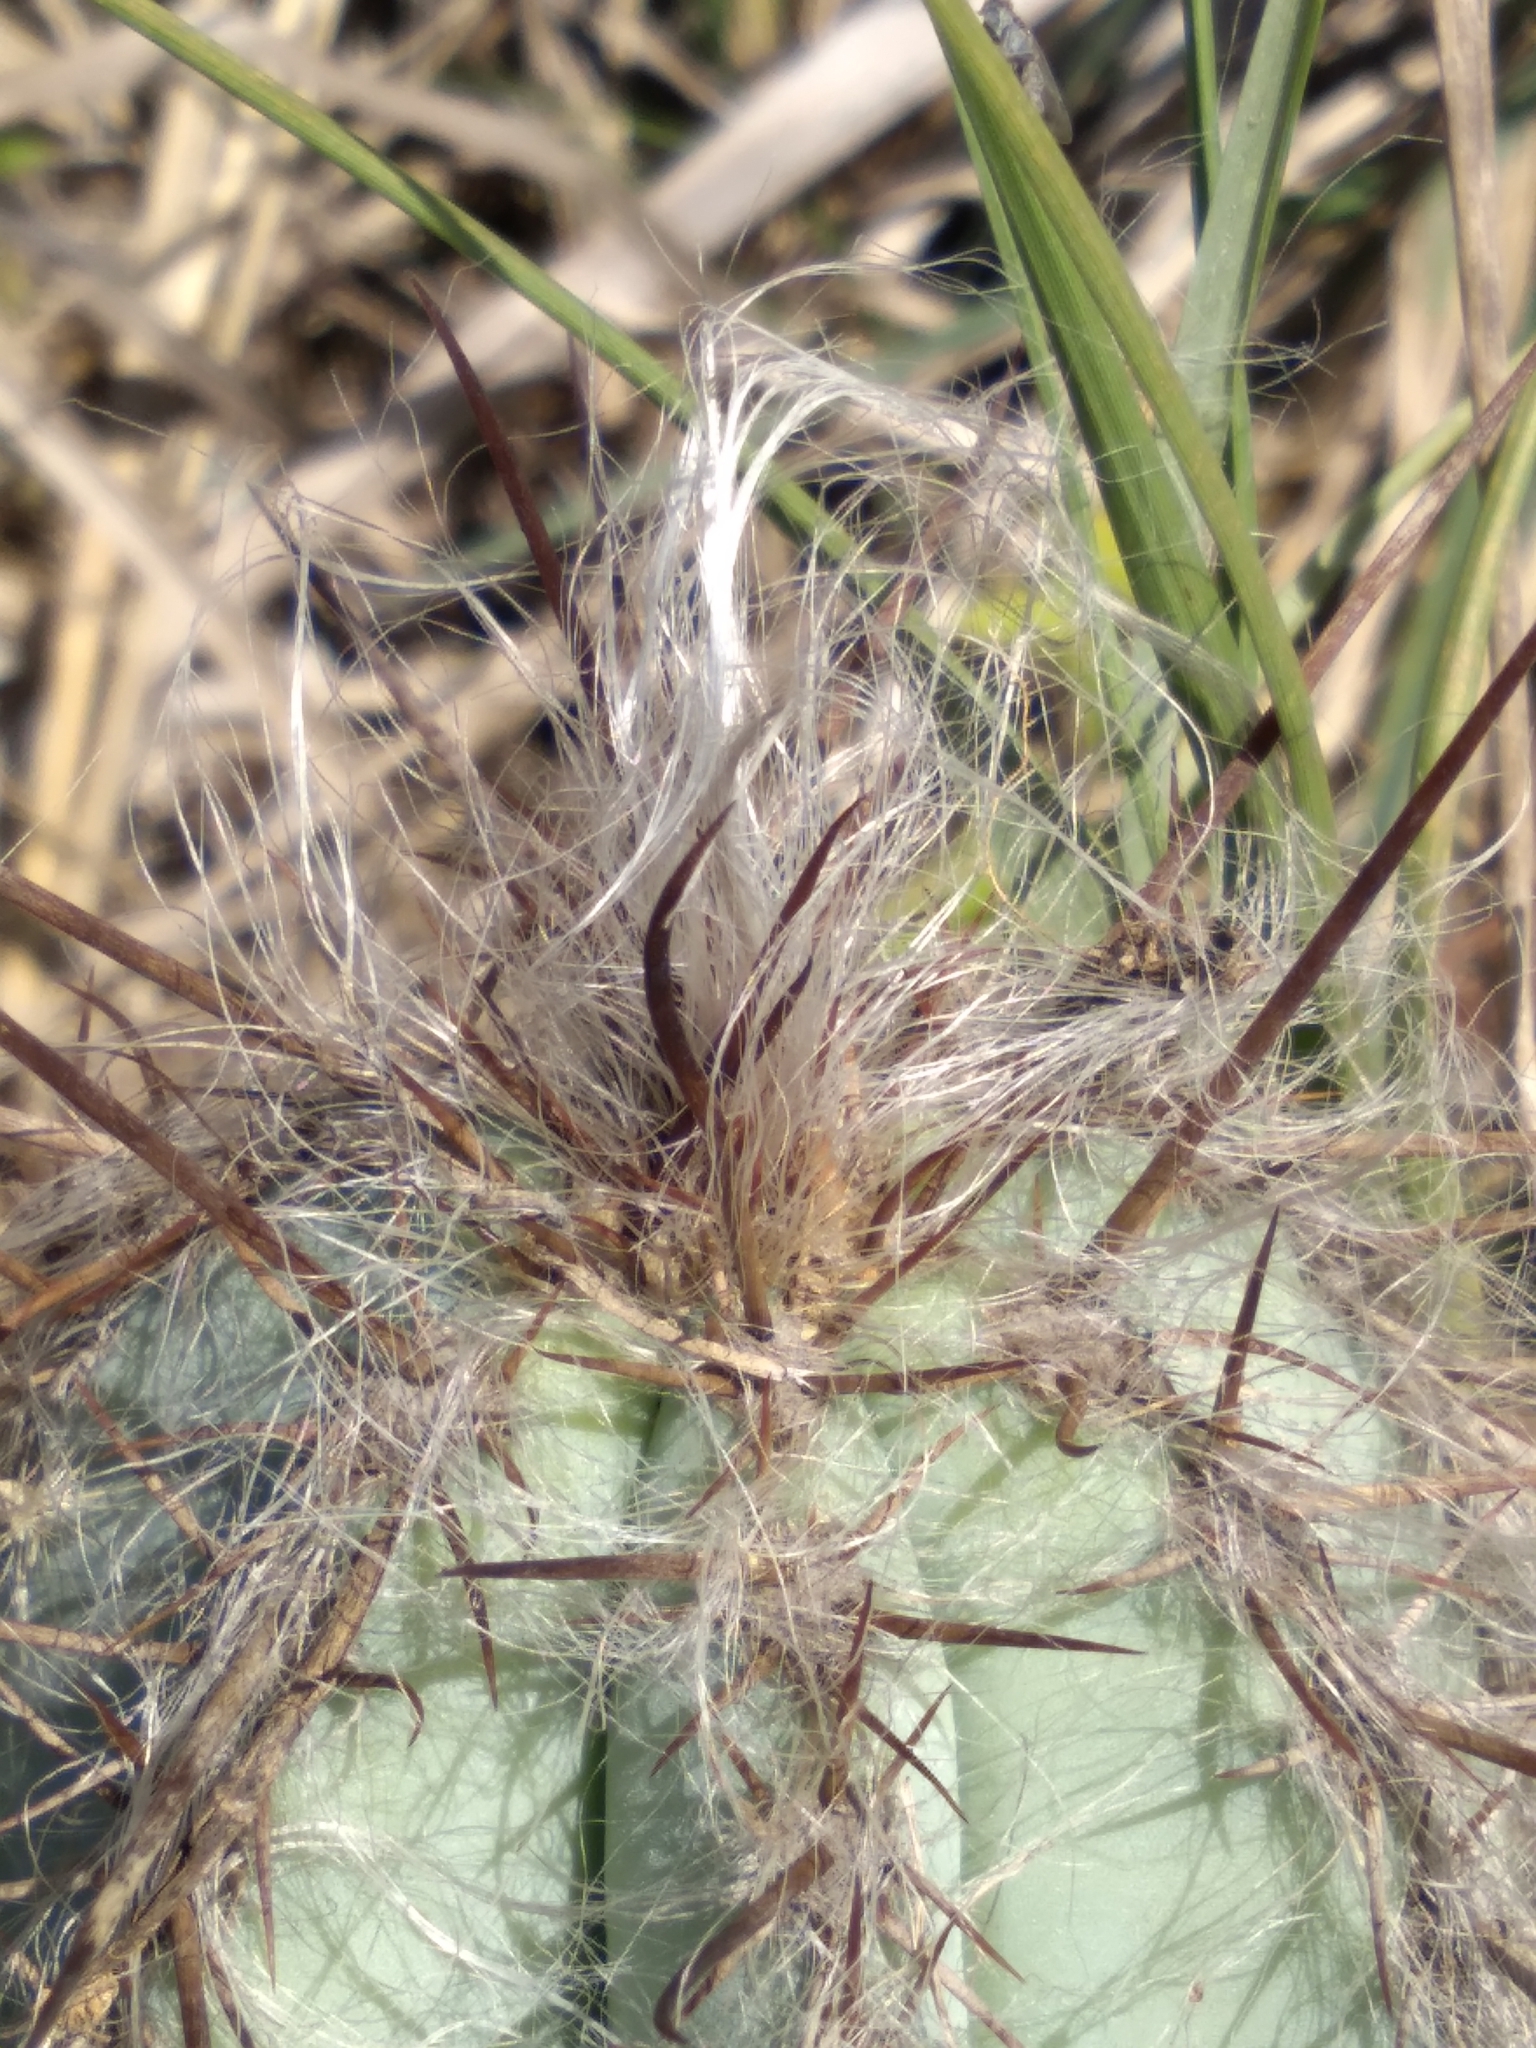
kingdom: Plantae
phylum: Tracheophyta
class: Magnoliopsida
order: Caryophyllales
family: Cactaceae
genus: Pilosocereus
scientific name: Pilosocereus ulei
